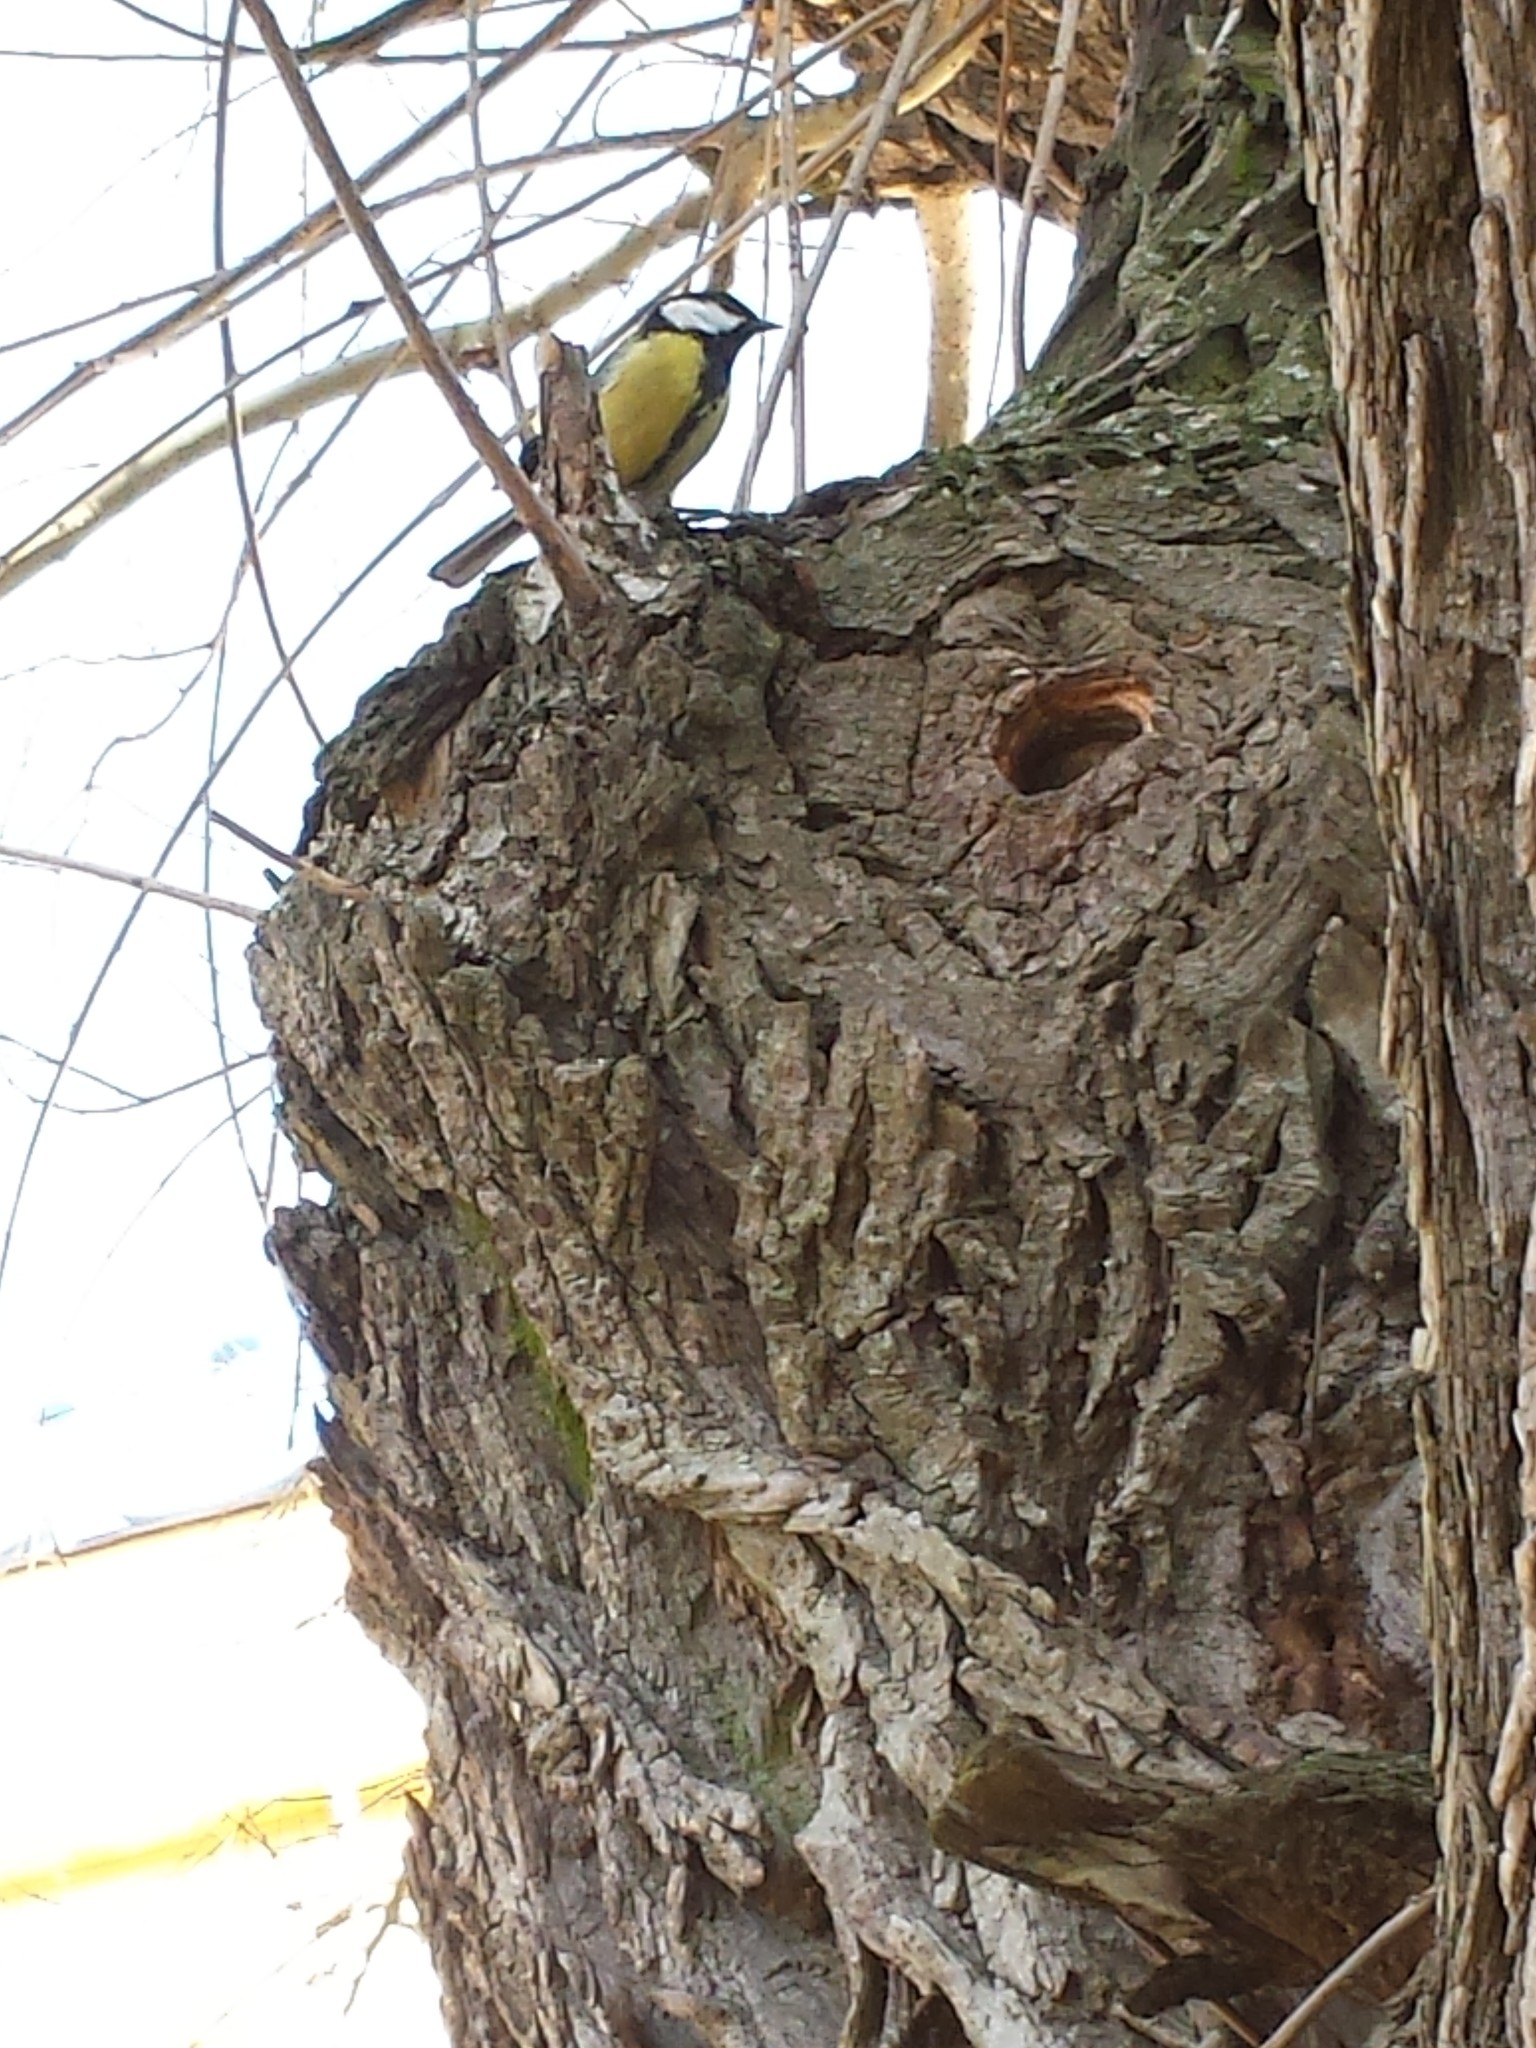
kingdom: Animalia
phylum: Chordata
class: Aves
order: Passeriformes
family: Paridae
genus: Parus
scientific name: Parus major
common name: Great tit
